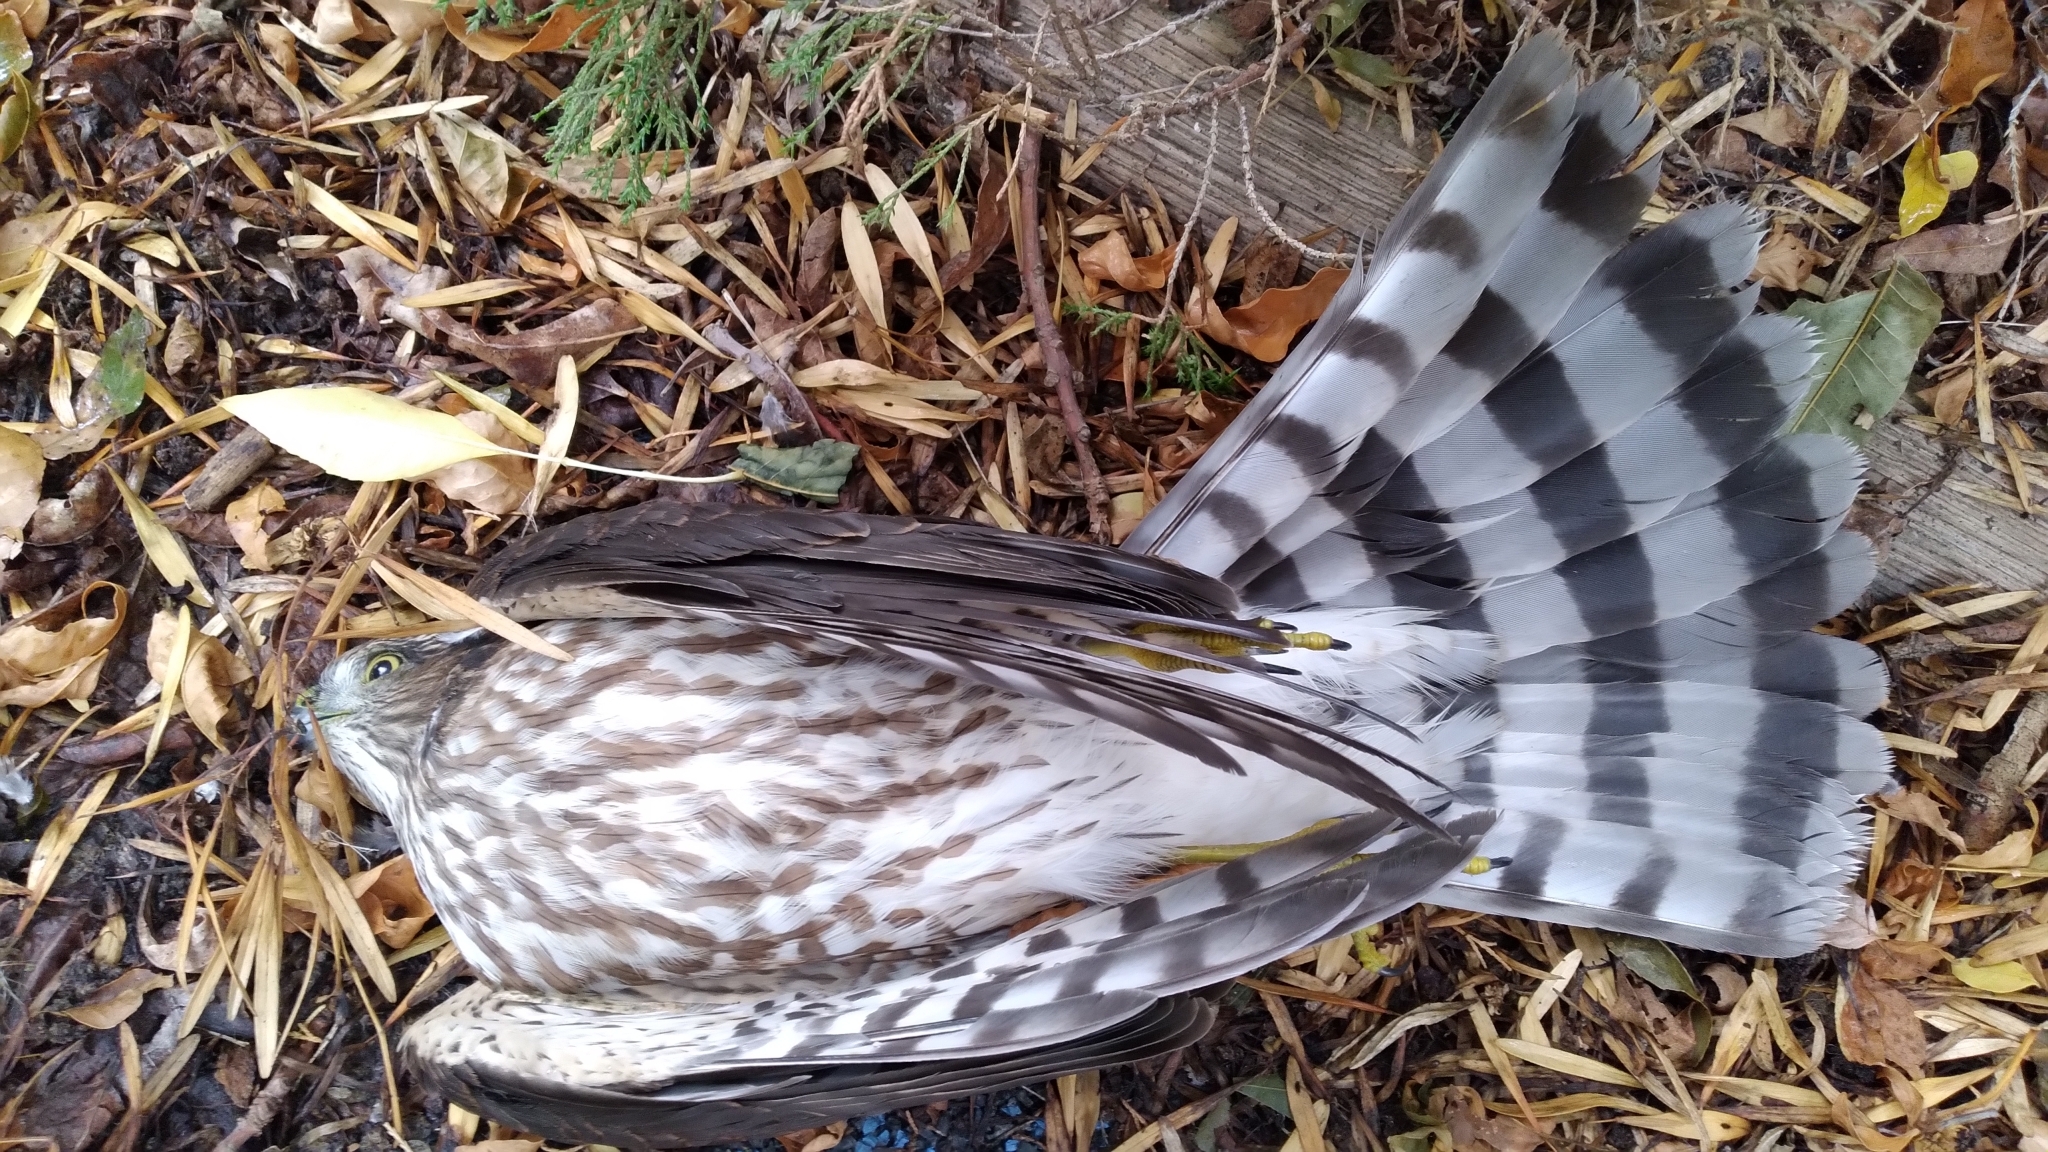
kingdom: Animalia
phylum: Chordata
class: Aves
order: Accipitriformes
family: Accipitridae
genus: Accipiter
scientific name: Accipiter striatus
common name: Sharp-shinned hawk
